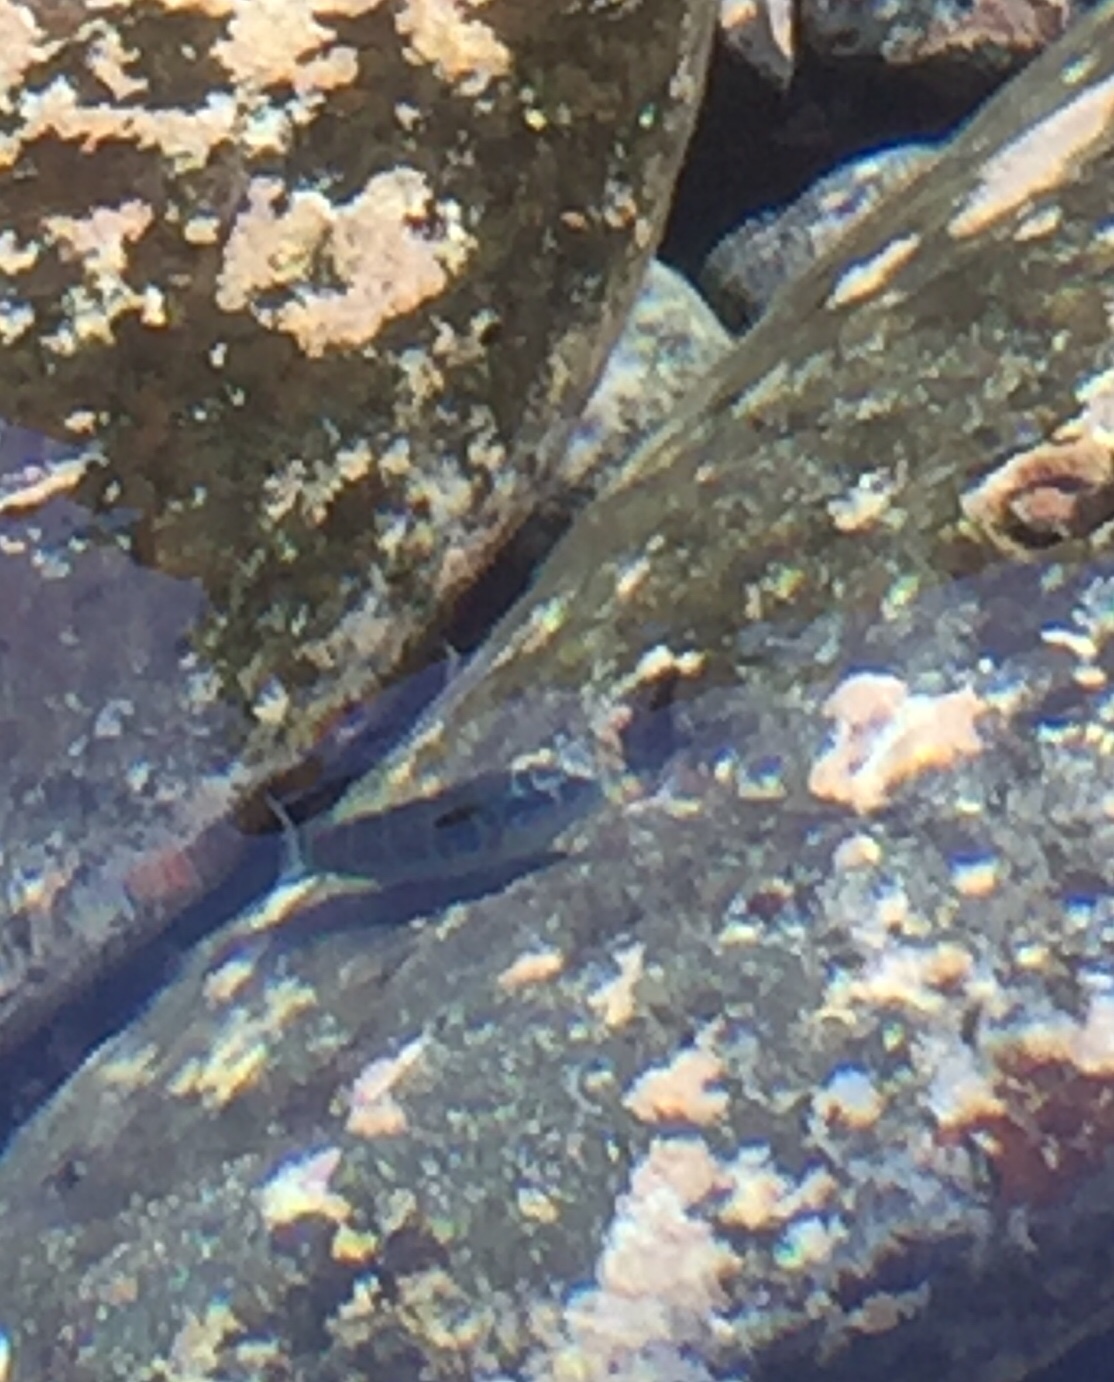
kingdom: Animalia
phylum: Chordata
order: Perciformes
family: Labridae
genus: Thalassoma
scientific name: Thalassoma pavo
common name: Ornate wrasse
